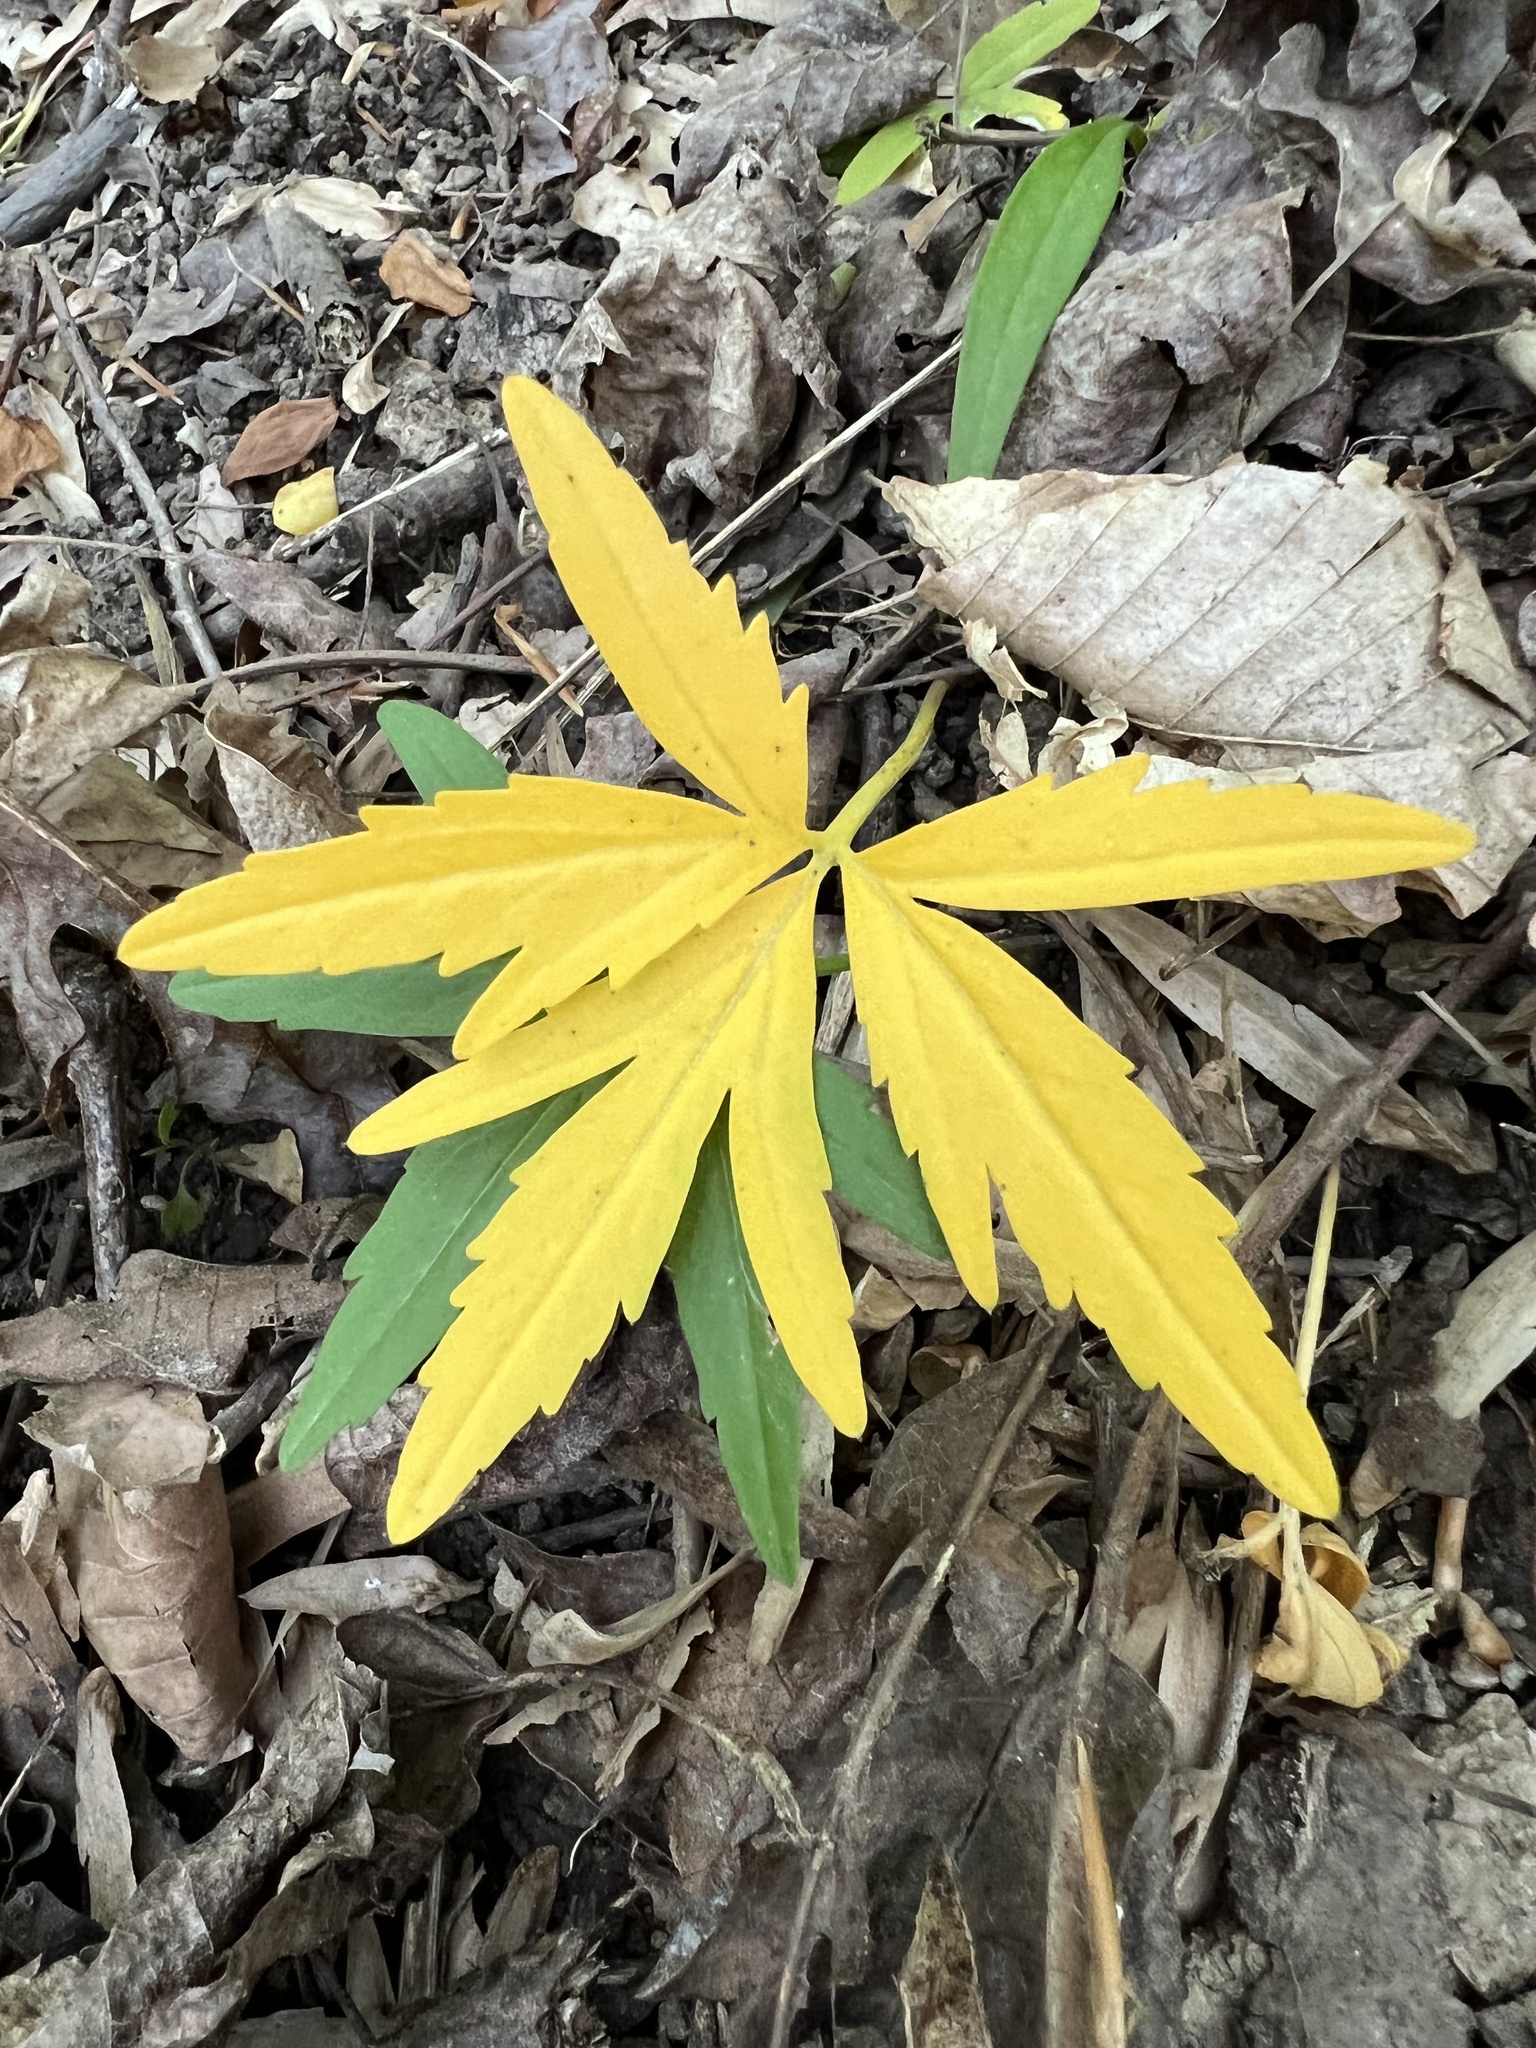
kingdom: Plantae
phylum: Tracheophyta
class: Magnoliopsida
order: Brassicales
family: Brassicaceae
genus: Cardamine
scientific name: Cardamine concatenata
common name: Cut-leaf toothcup
